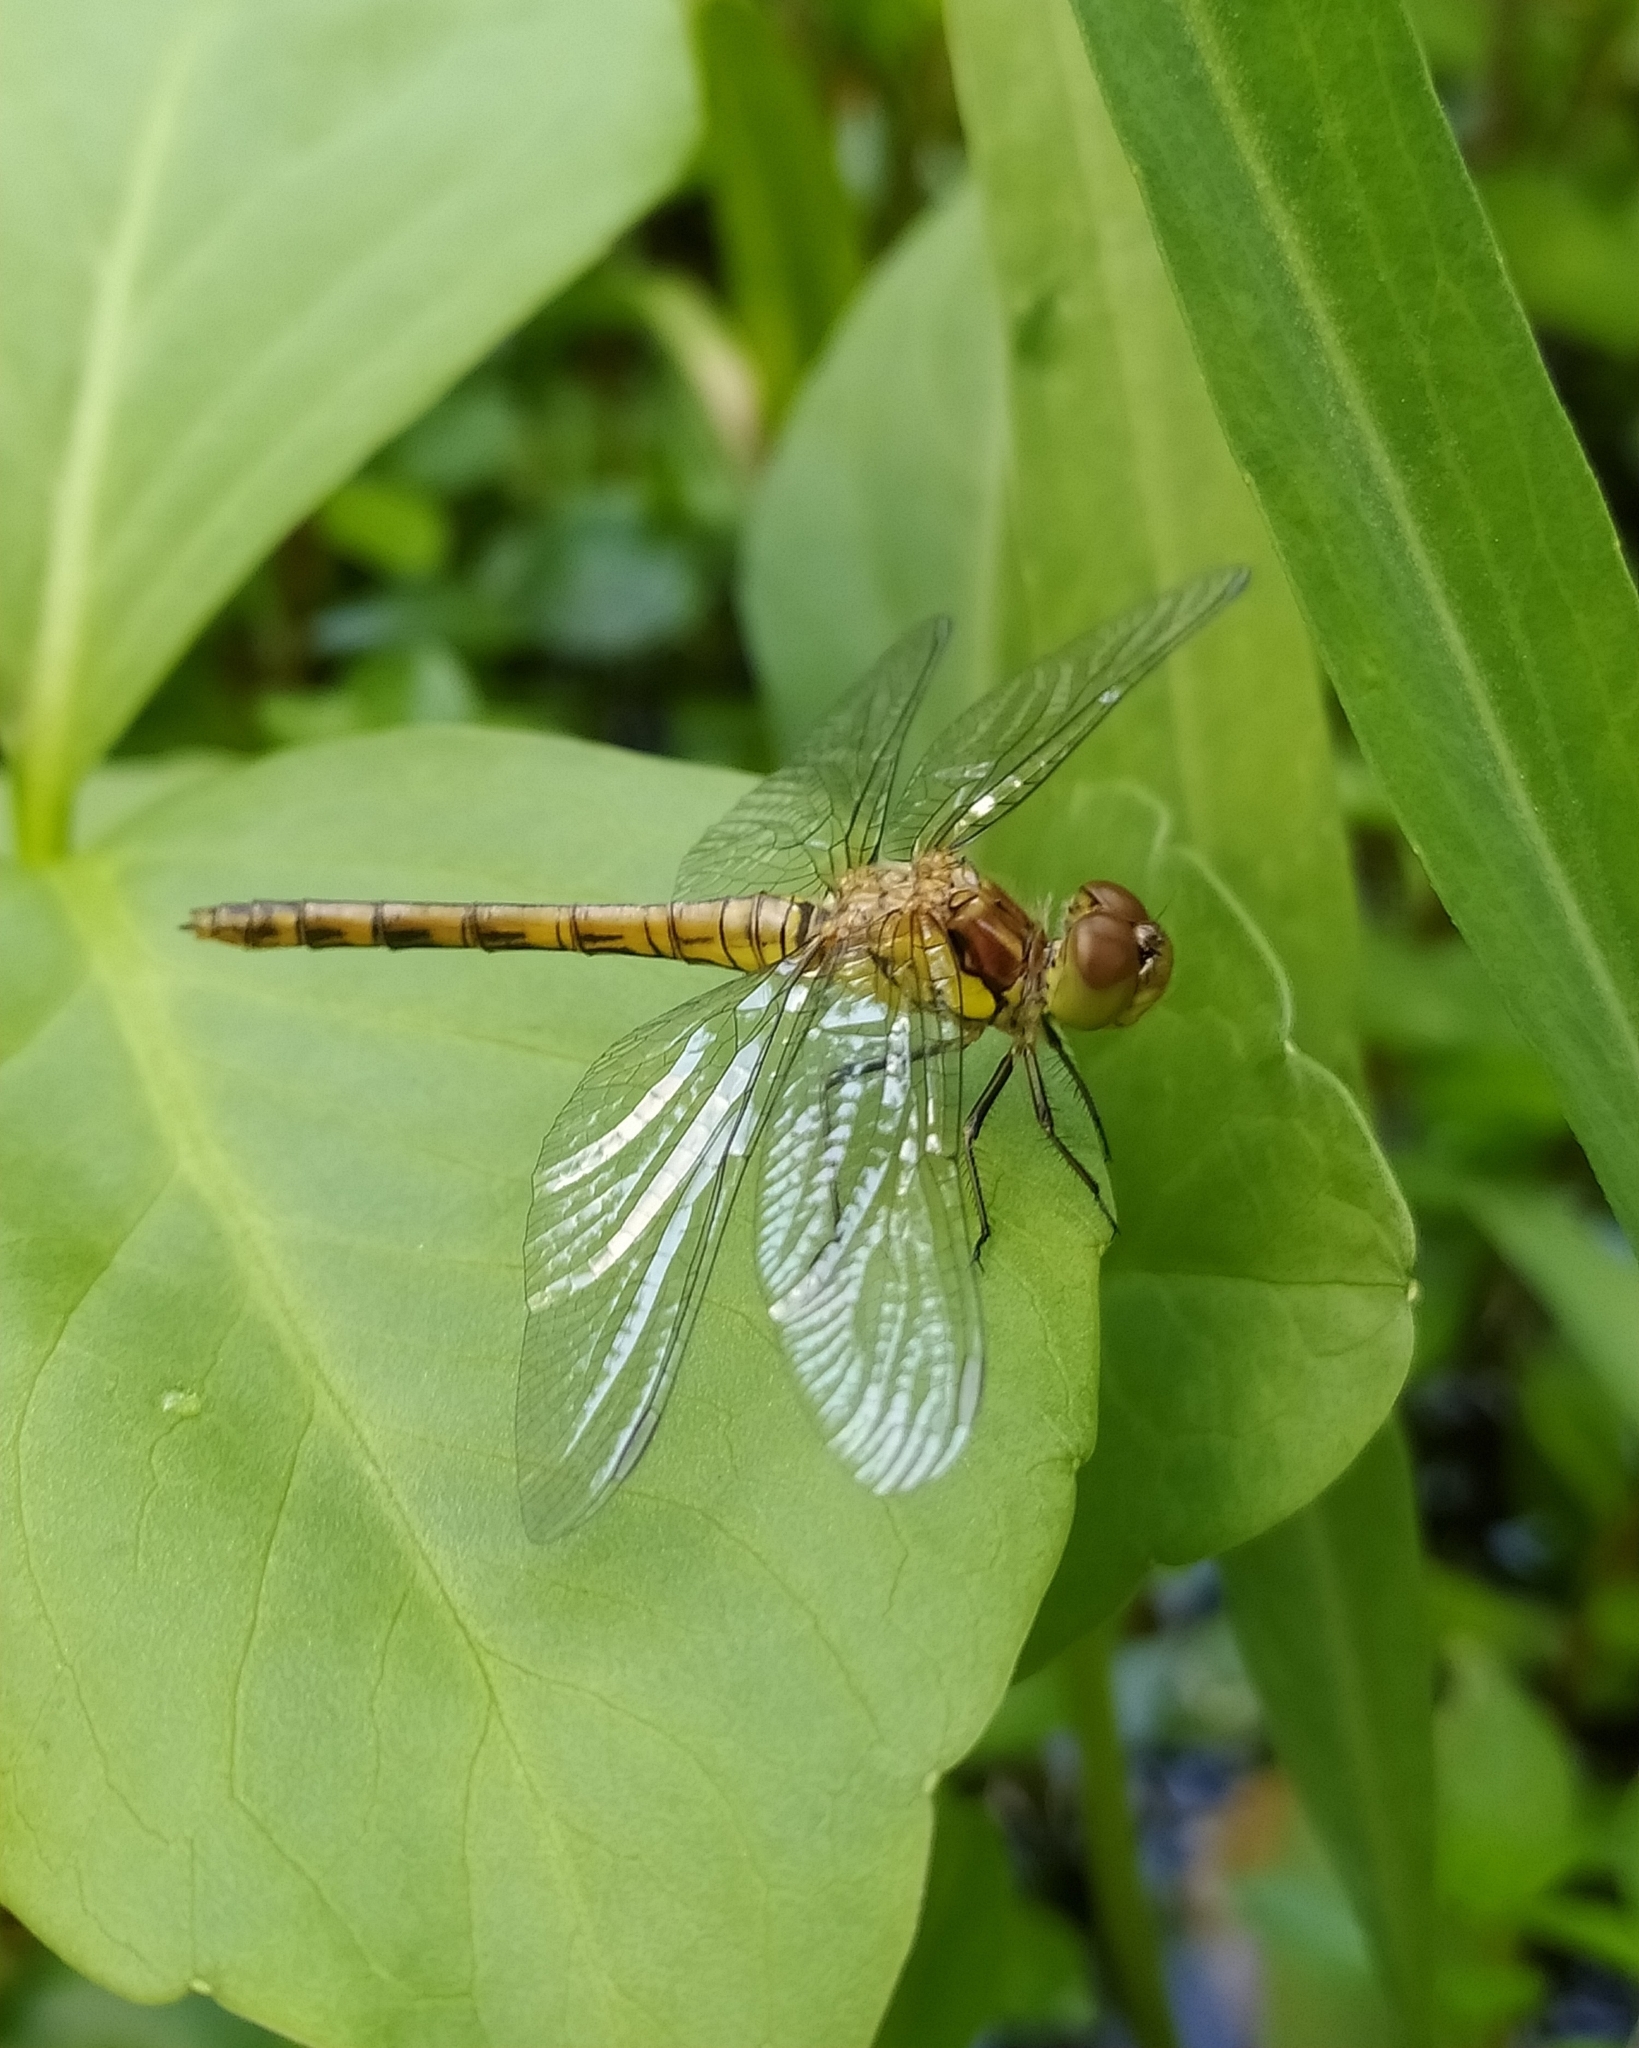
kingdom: Animalia
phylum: Arthropoda
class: Insecta
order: Odonata
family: Libellulidae
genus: Sympetrum
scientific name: Sympetrum striolatum
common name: Common darter
